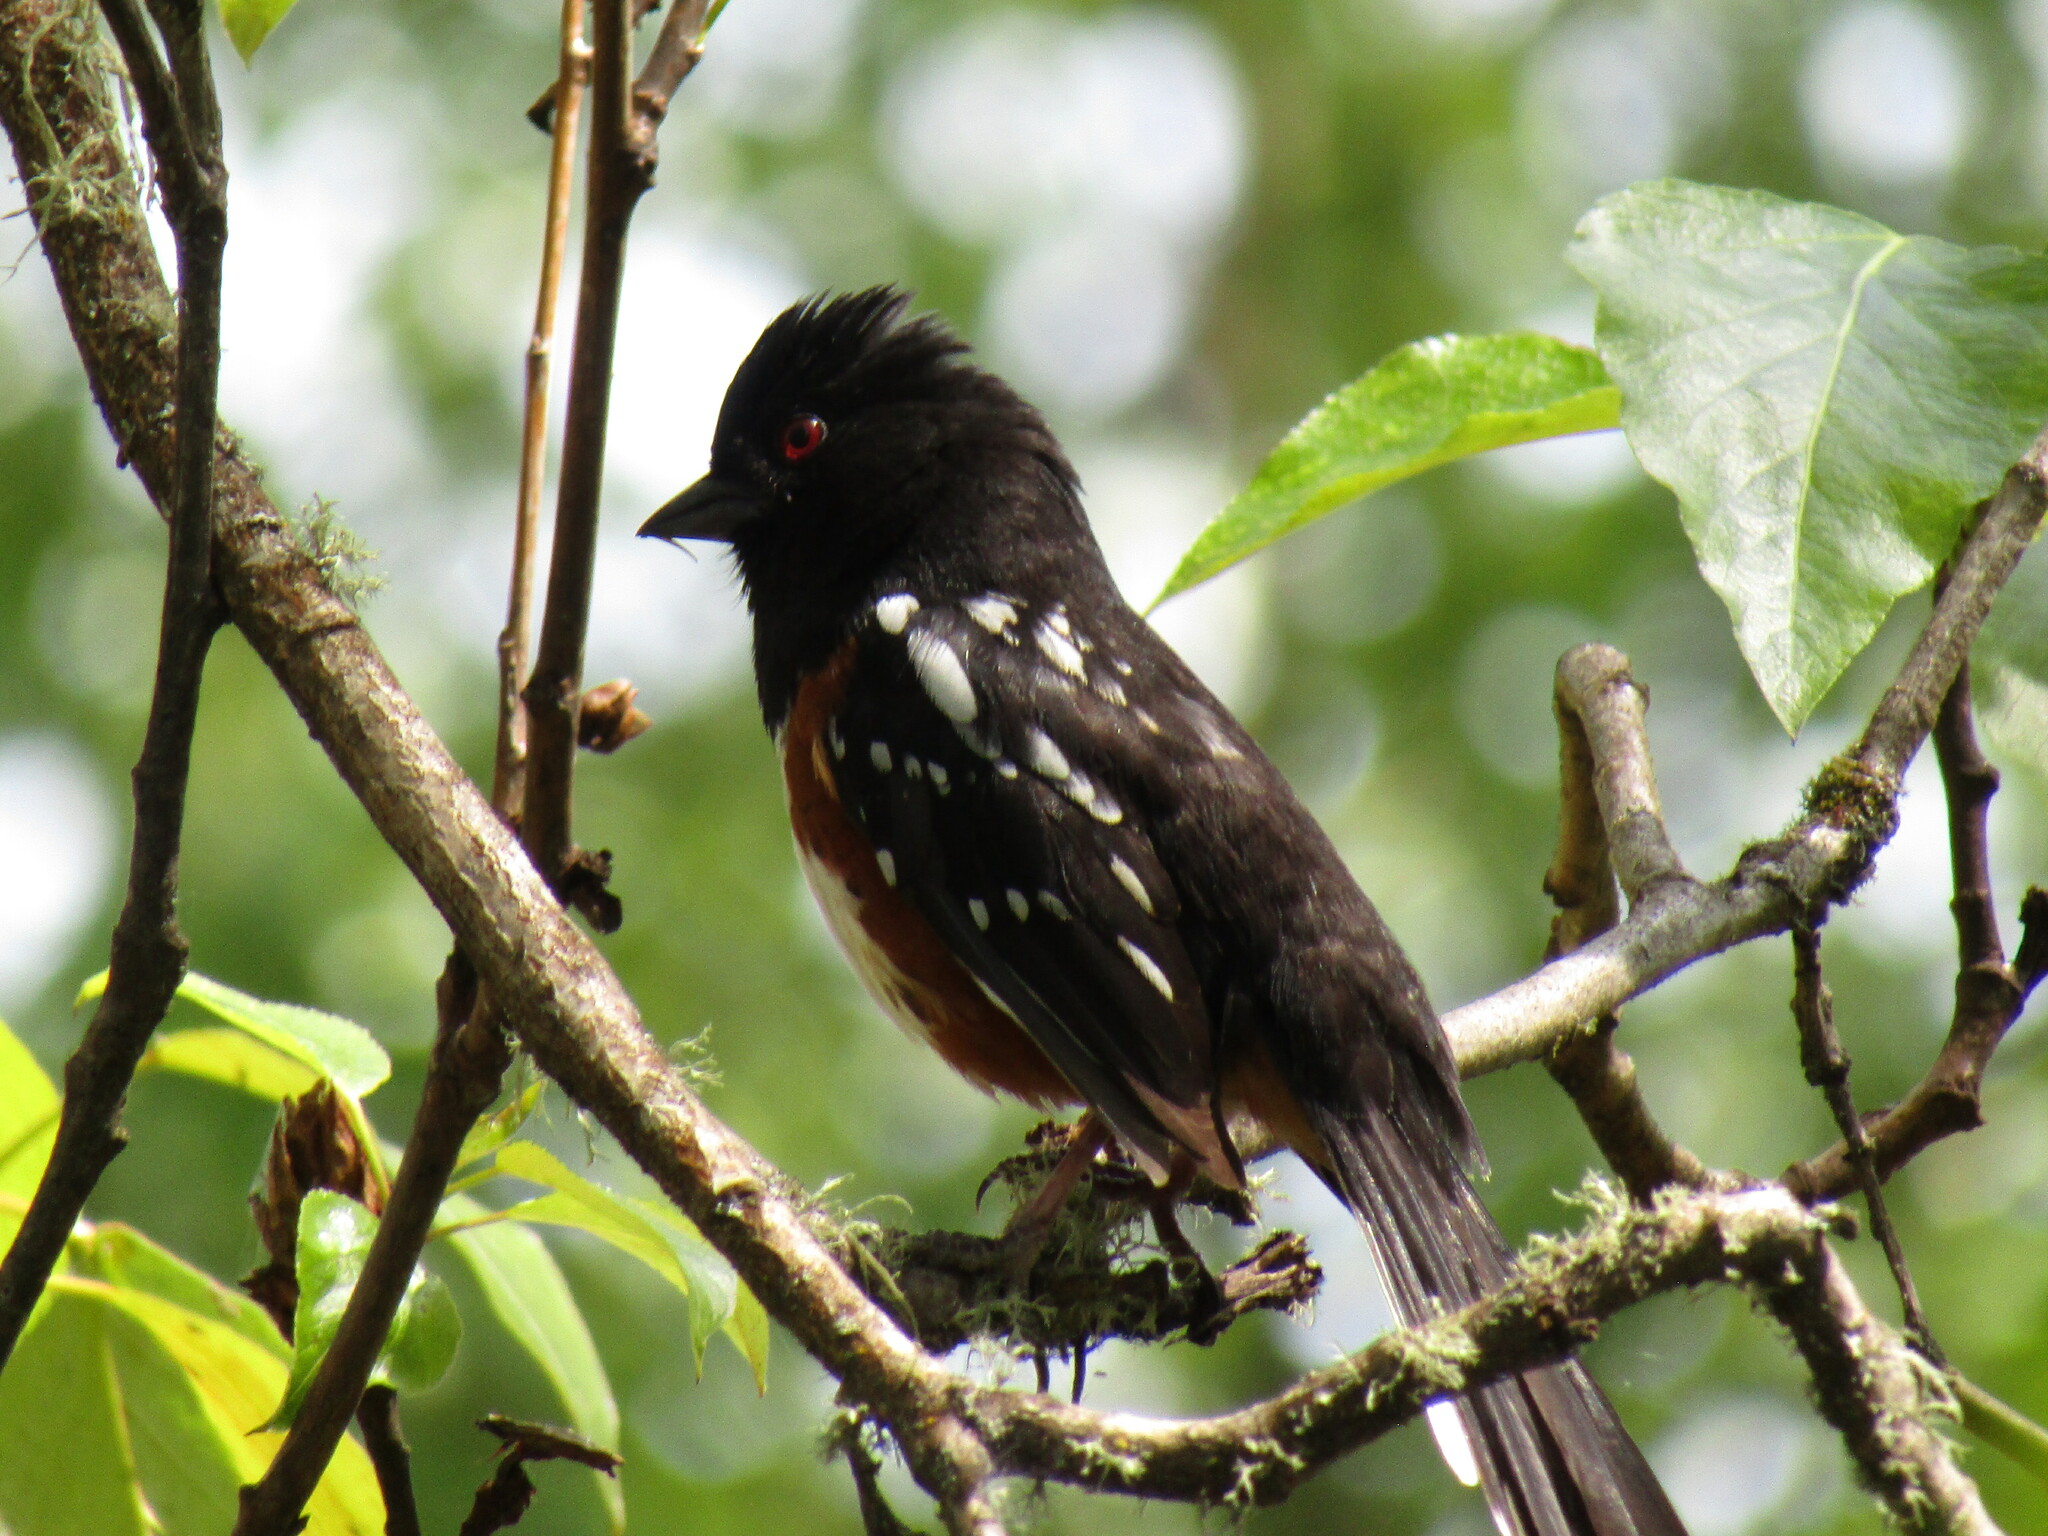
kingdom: Animalia
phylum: Chordata
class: Aves
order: Passeriformes
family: Passerellidae
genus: Pipilo
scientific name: Pipilo maculatus
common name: Spotted towhee
